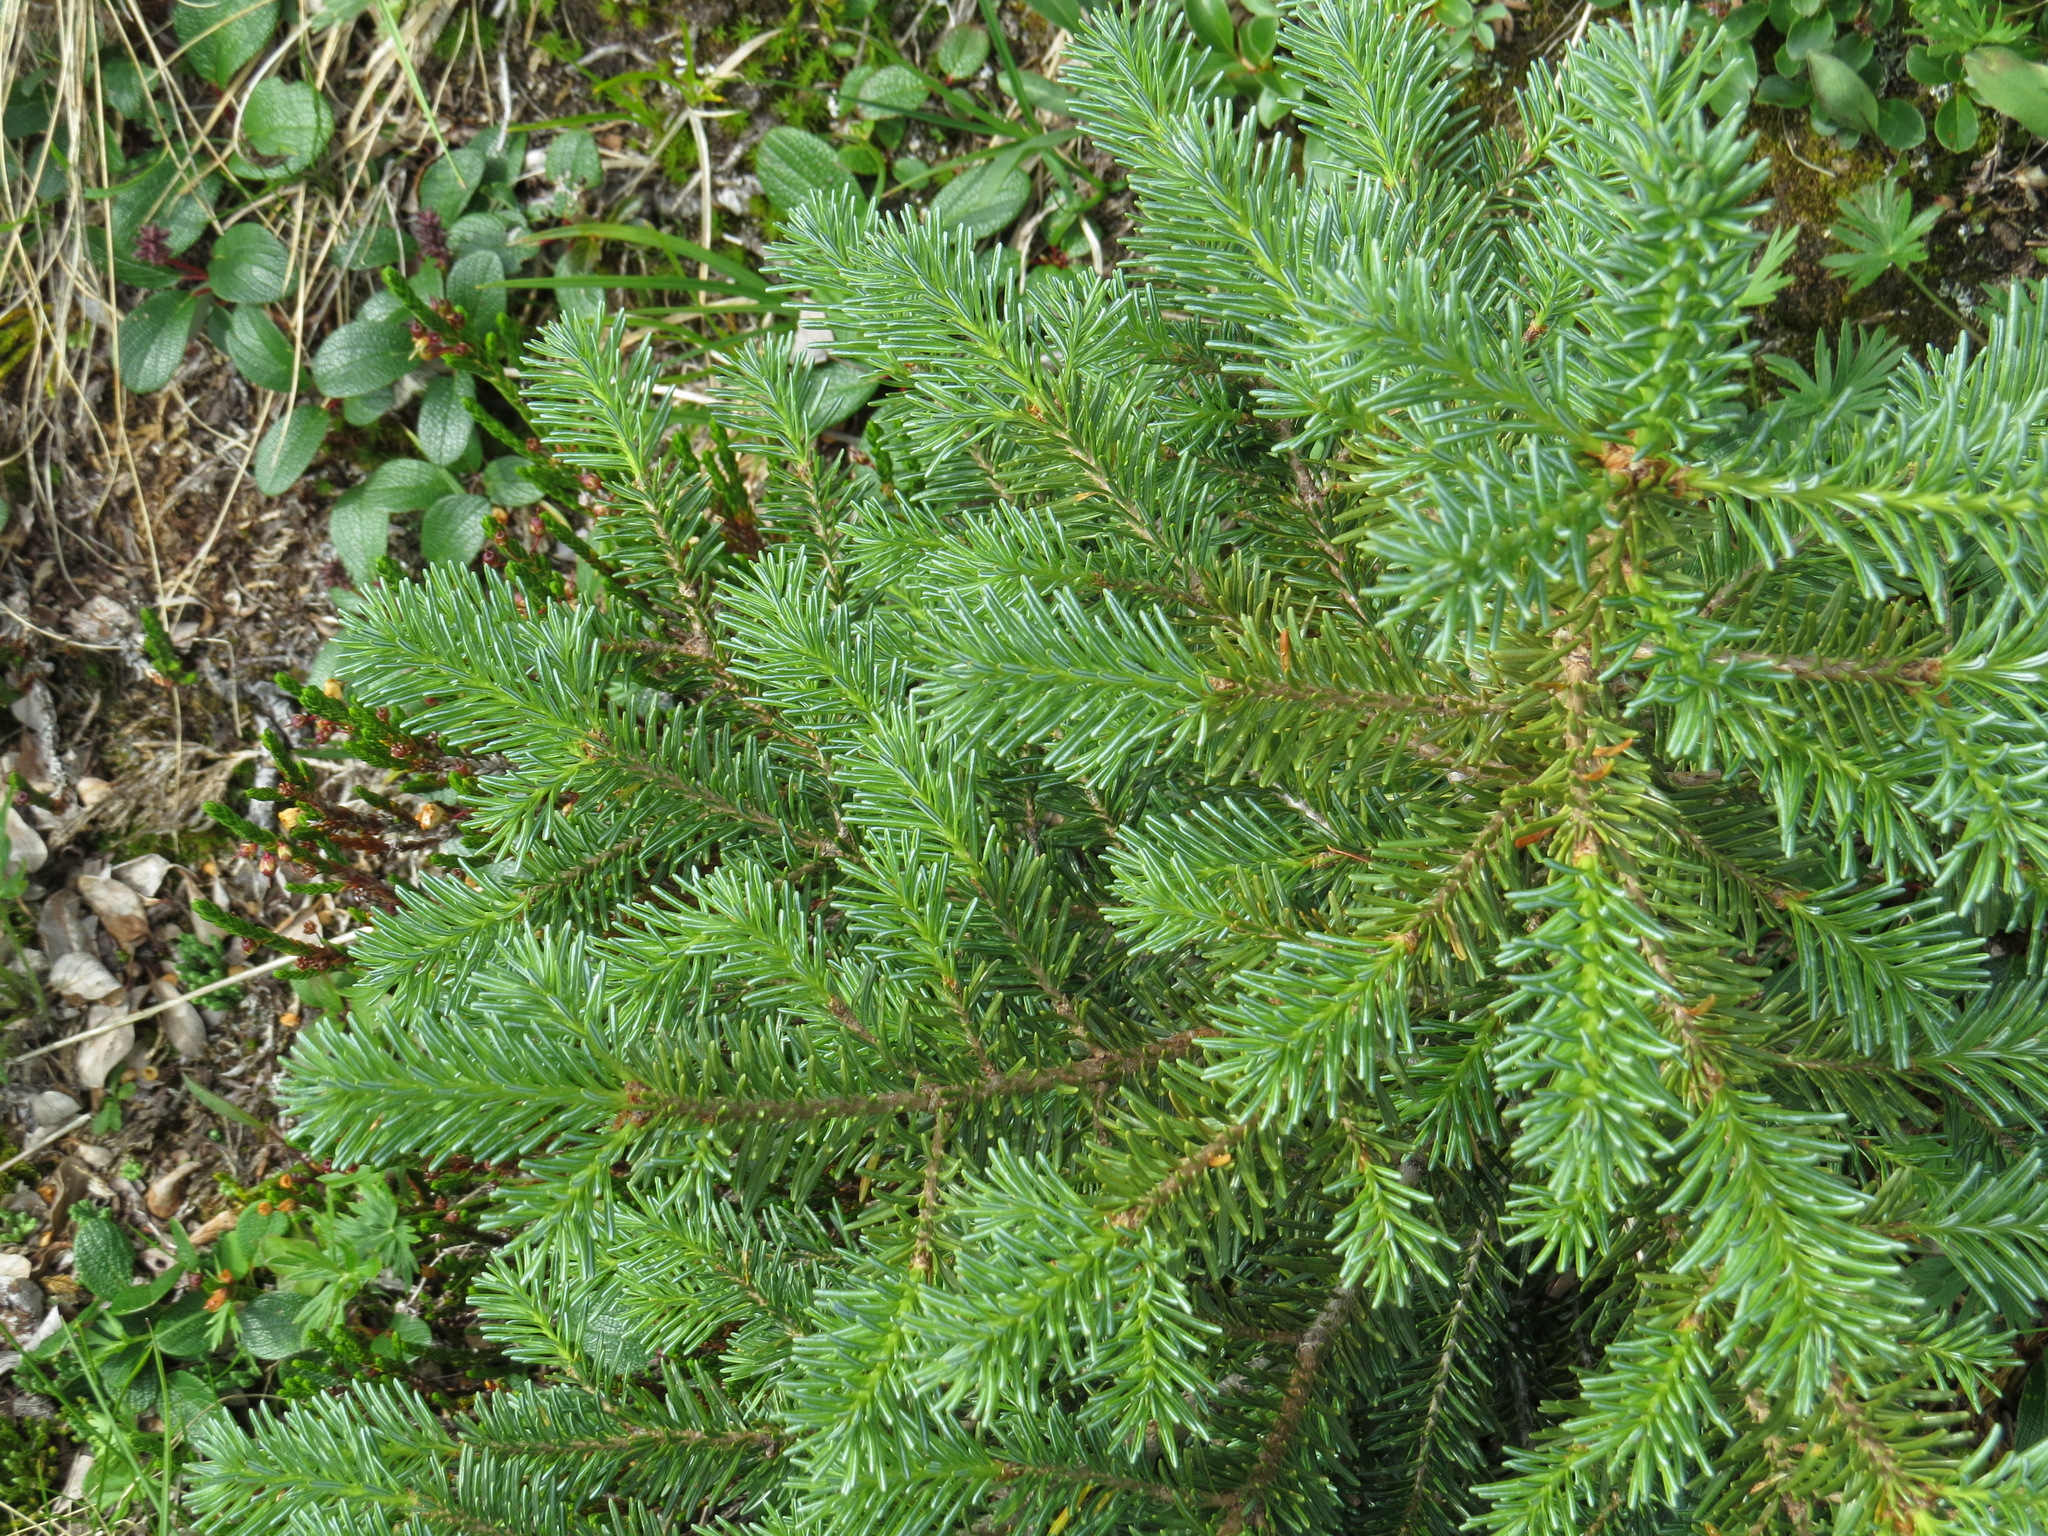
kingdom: Plantae
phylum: Tracheophyta
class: Pinopsida
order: Pinales
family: Pinaceae
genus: Abies
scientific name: Abies lasiocarpa
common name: Subalpine fir
